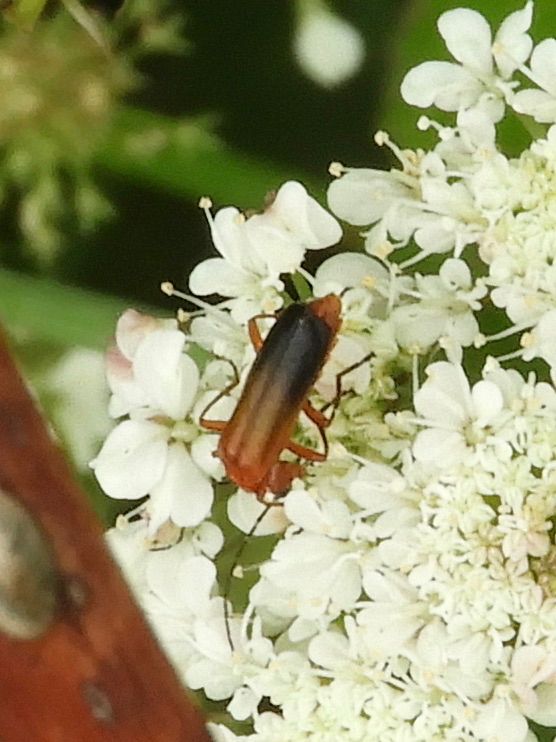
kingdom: Animalia
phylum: Arthropoda
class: Insecta
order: Coleoptera
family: Cantharidae
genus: Rhagonycha
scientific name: Rhagonycha fulva
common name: Common red soldier beetle
